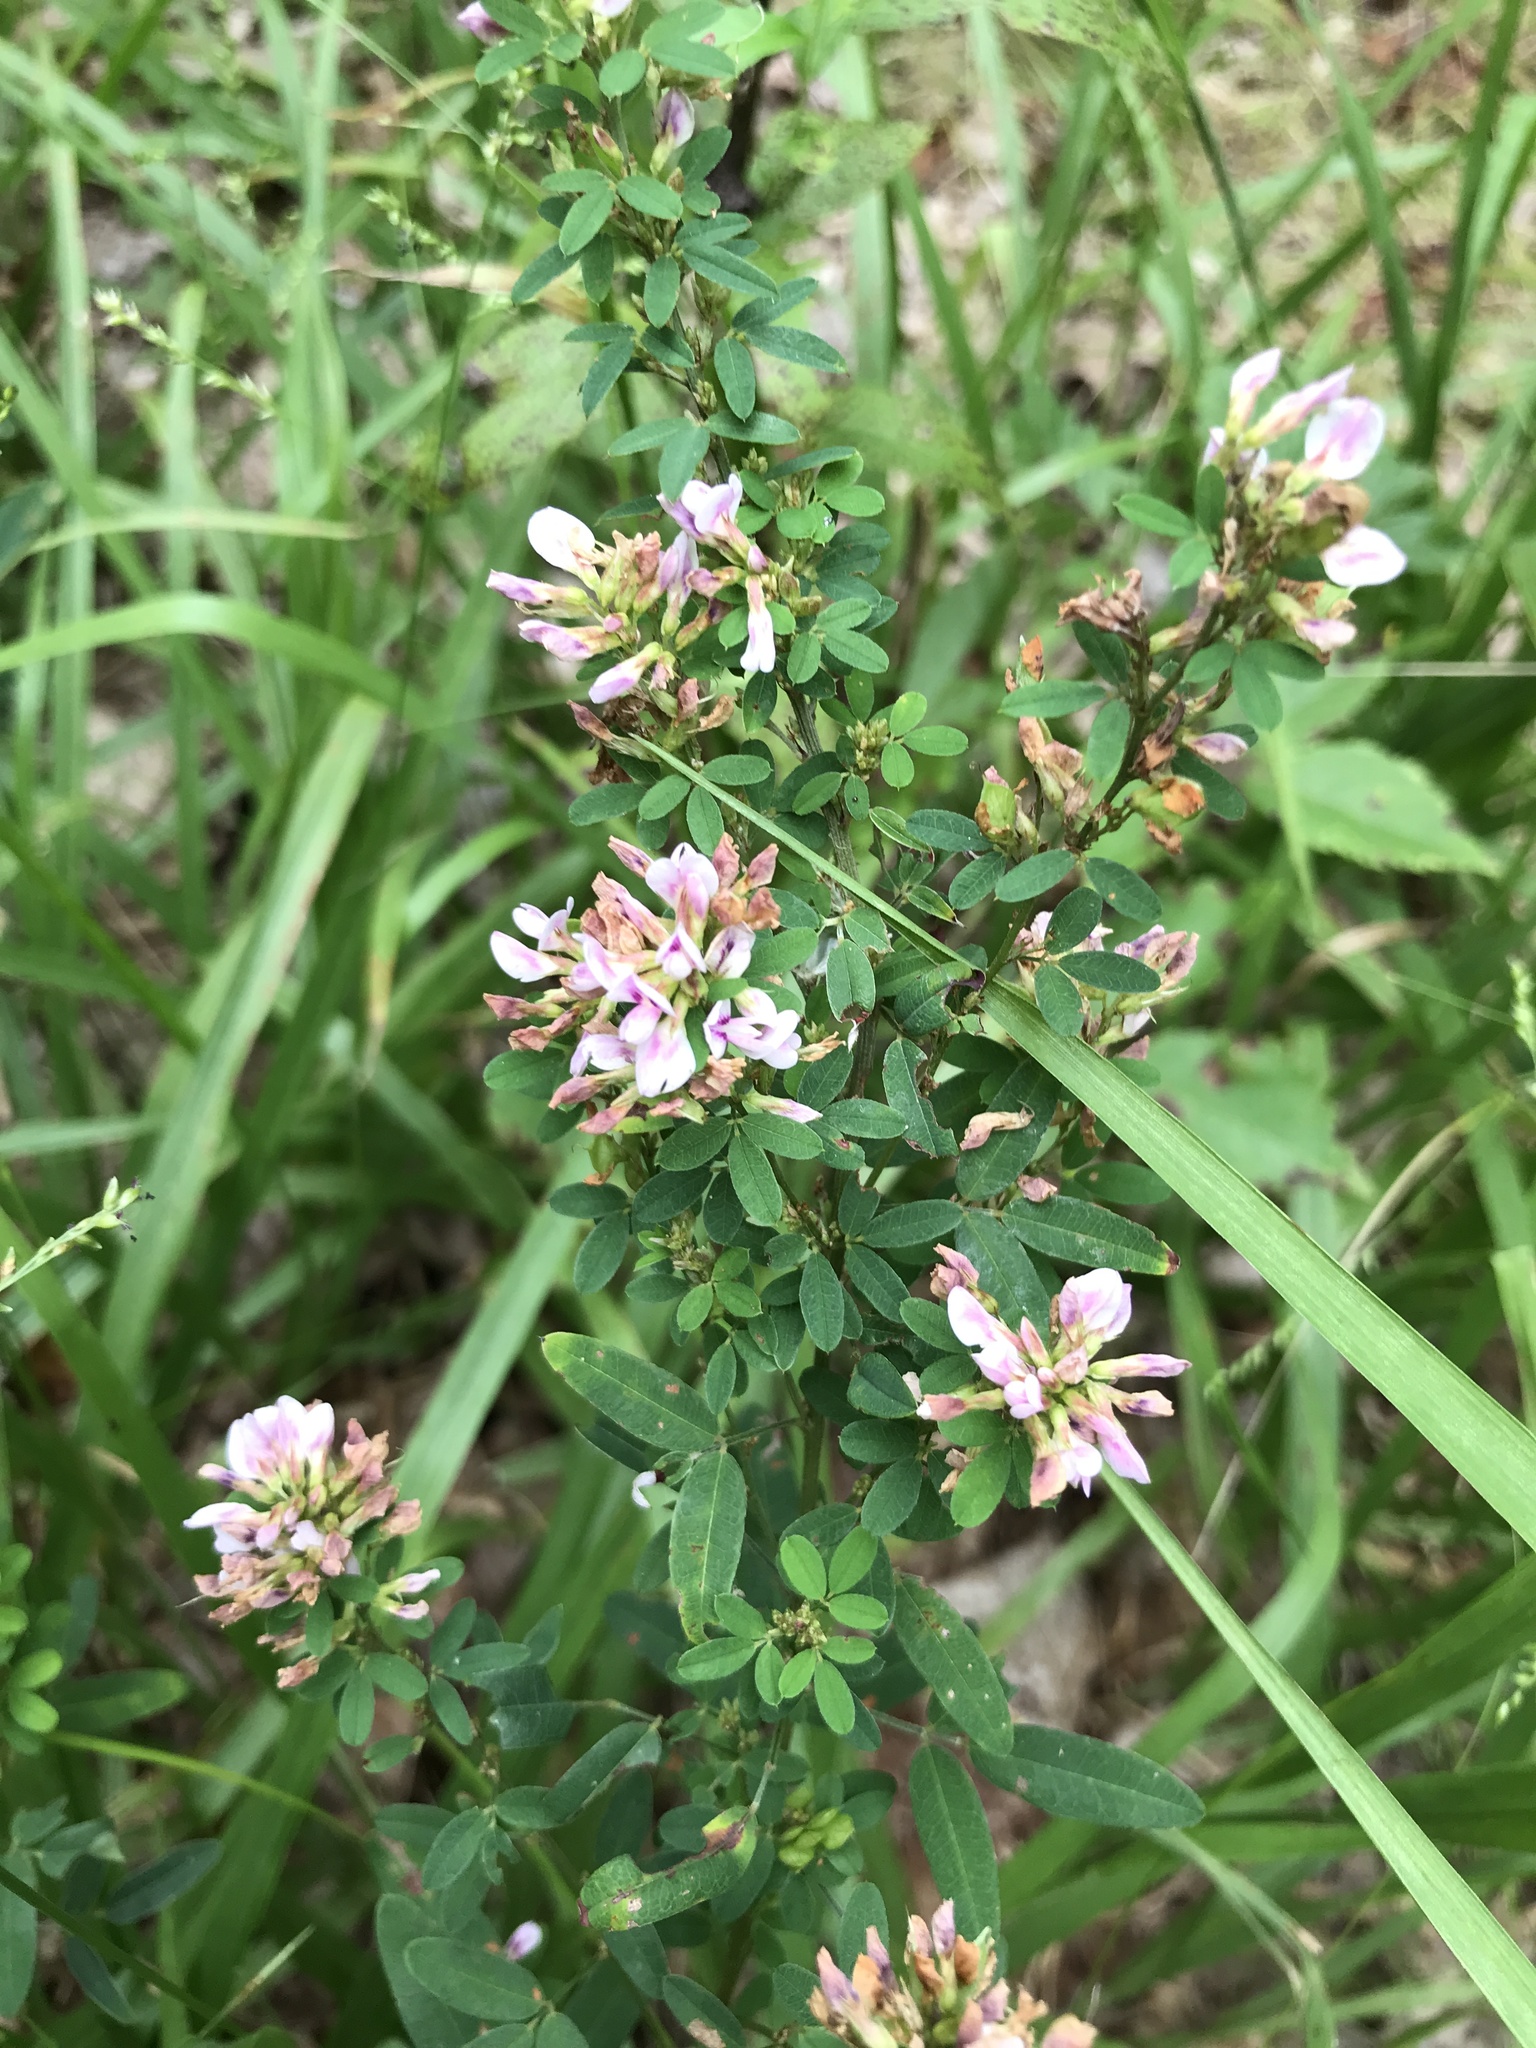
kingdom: Plantae
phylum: Tracheophyta
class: Magnoliopsida
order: Fabales
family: Fabaceae
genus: Lespedeza
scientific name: Lespedeza virginica
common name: Slender bush-clover
